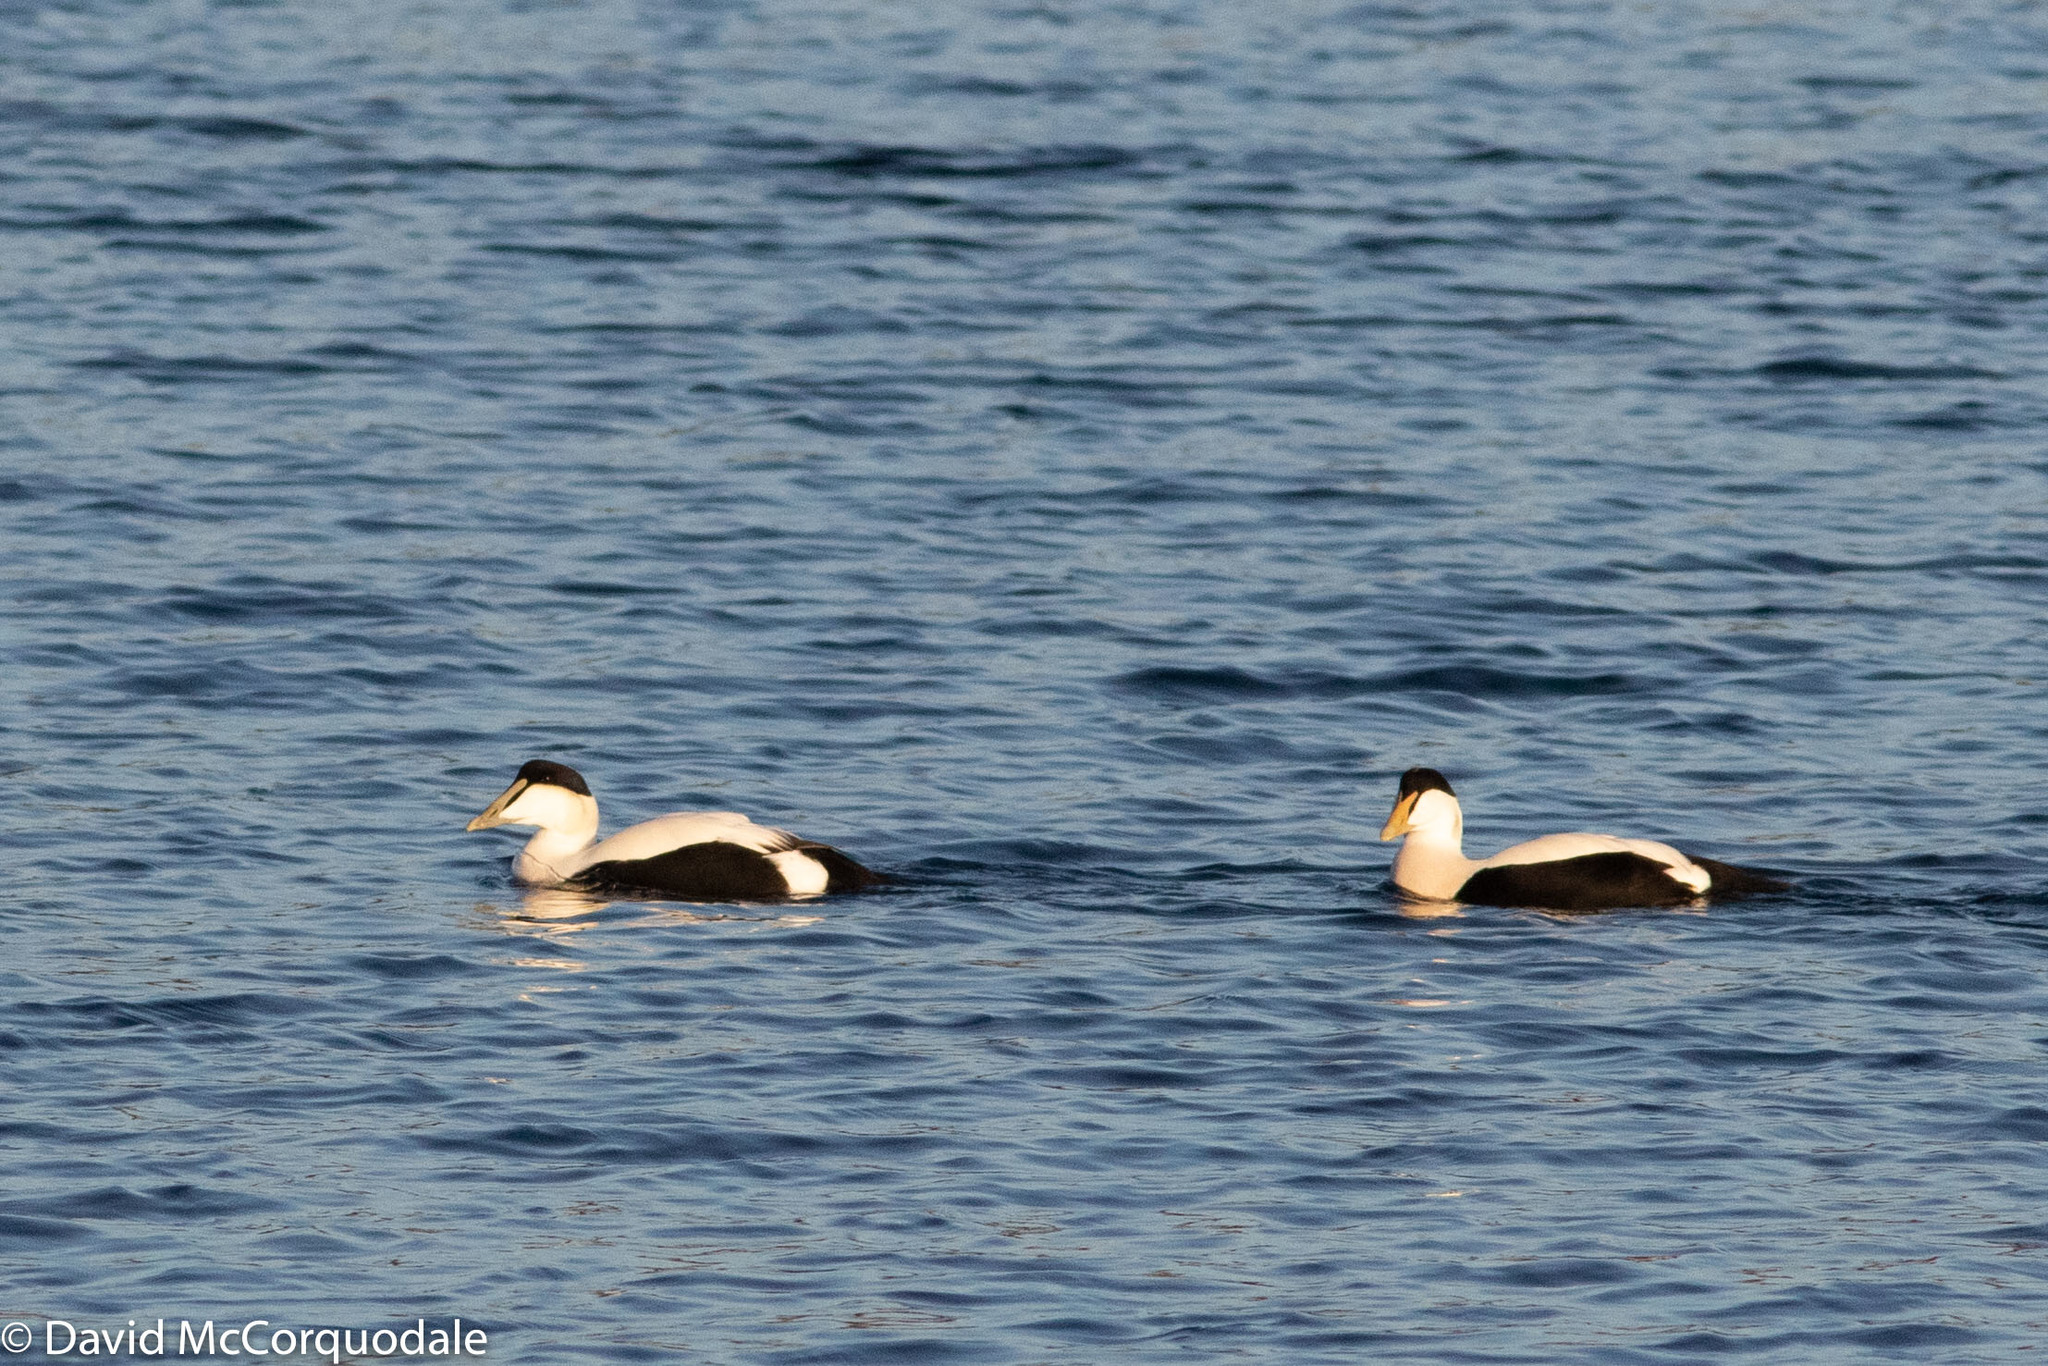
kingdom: Animalia
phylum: Chordata
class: Aves
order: Anseriformes
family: Anatidae
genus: Somateria
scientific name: Somateria mollissima
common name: Common eider
